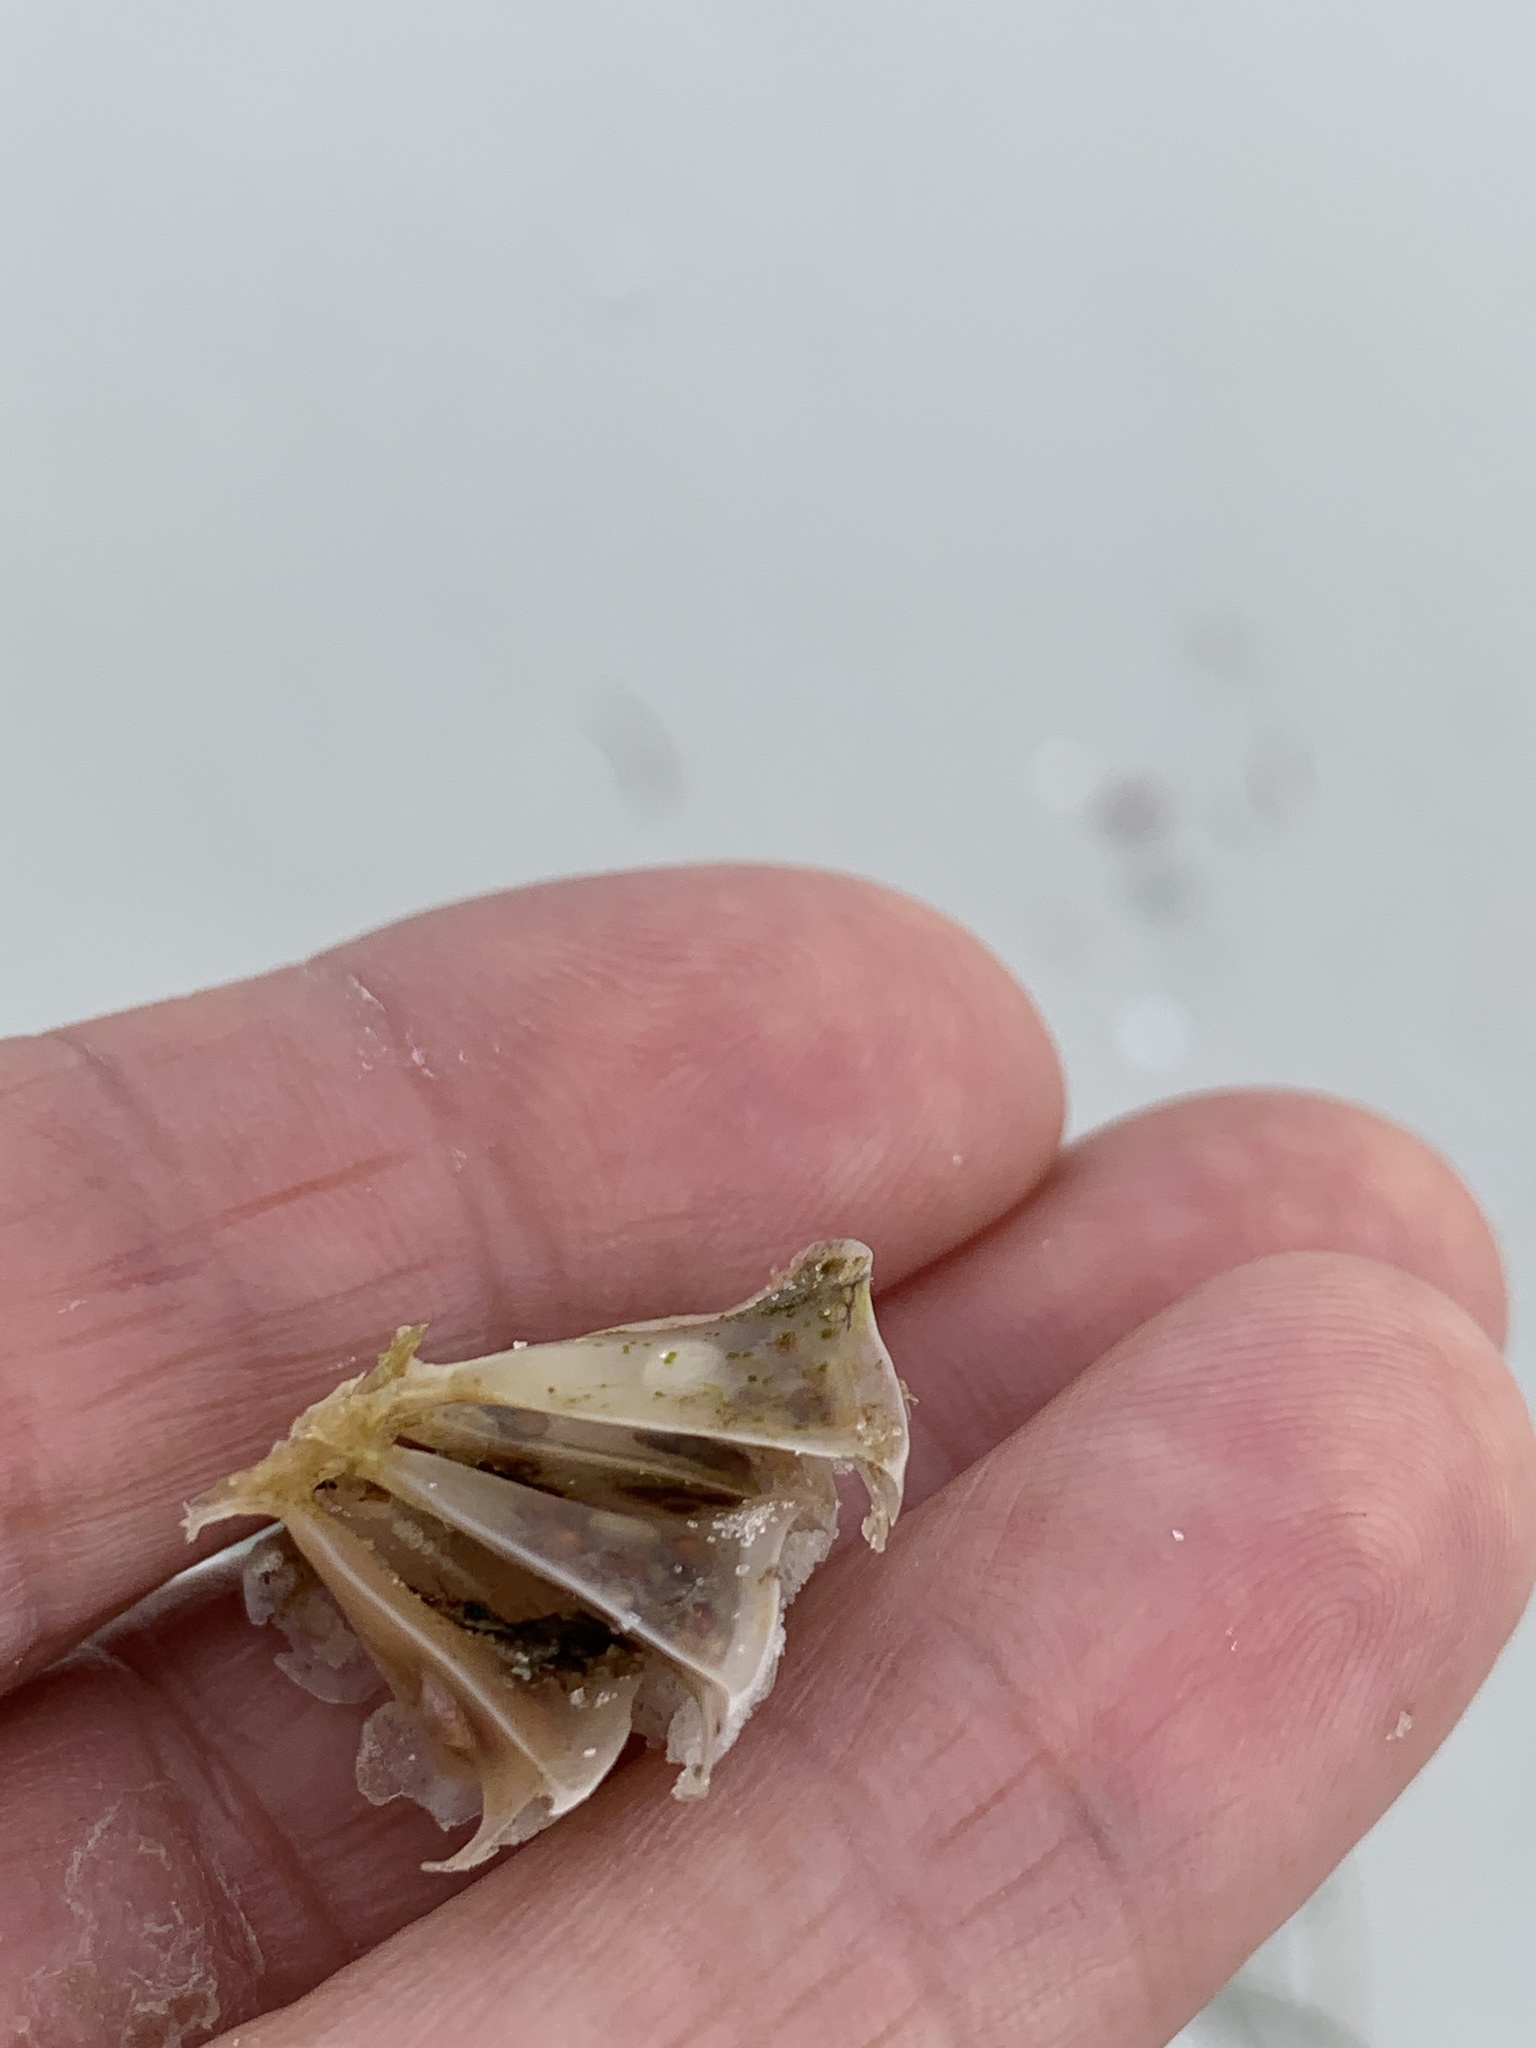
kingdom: Animalia
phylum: Mollusca
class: Gastropoda
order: Neogastropoda
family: Fasciolariidae
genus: Cinctura
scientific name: Cinctura hunteria
